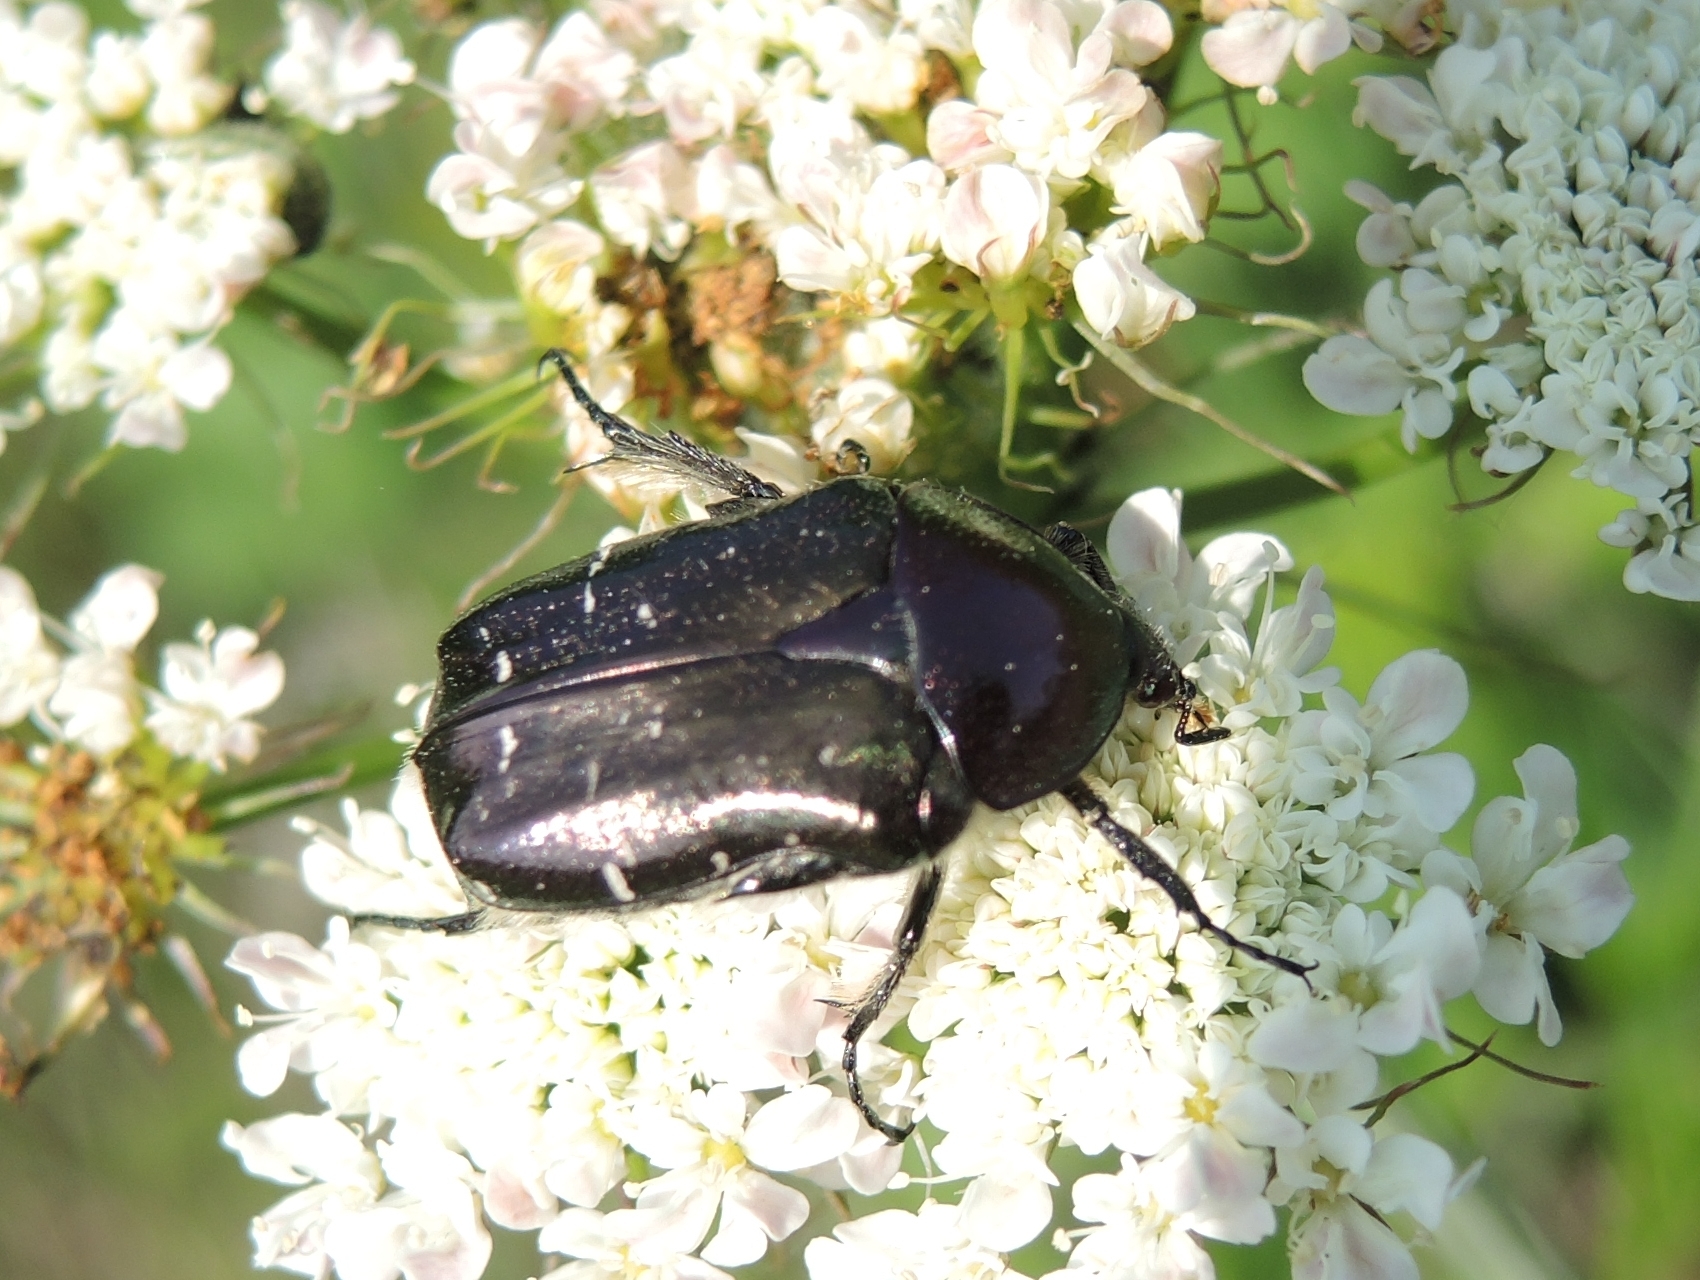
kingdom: Animalia
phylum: Arthropoda
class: Insecta
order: Coleoptera
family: Scarabaeidae
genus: Cetonia
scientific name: Cetonia aurata
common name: Rose chafer
